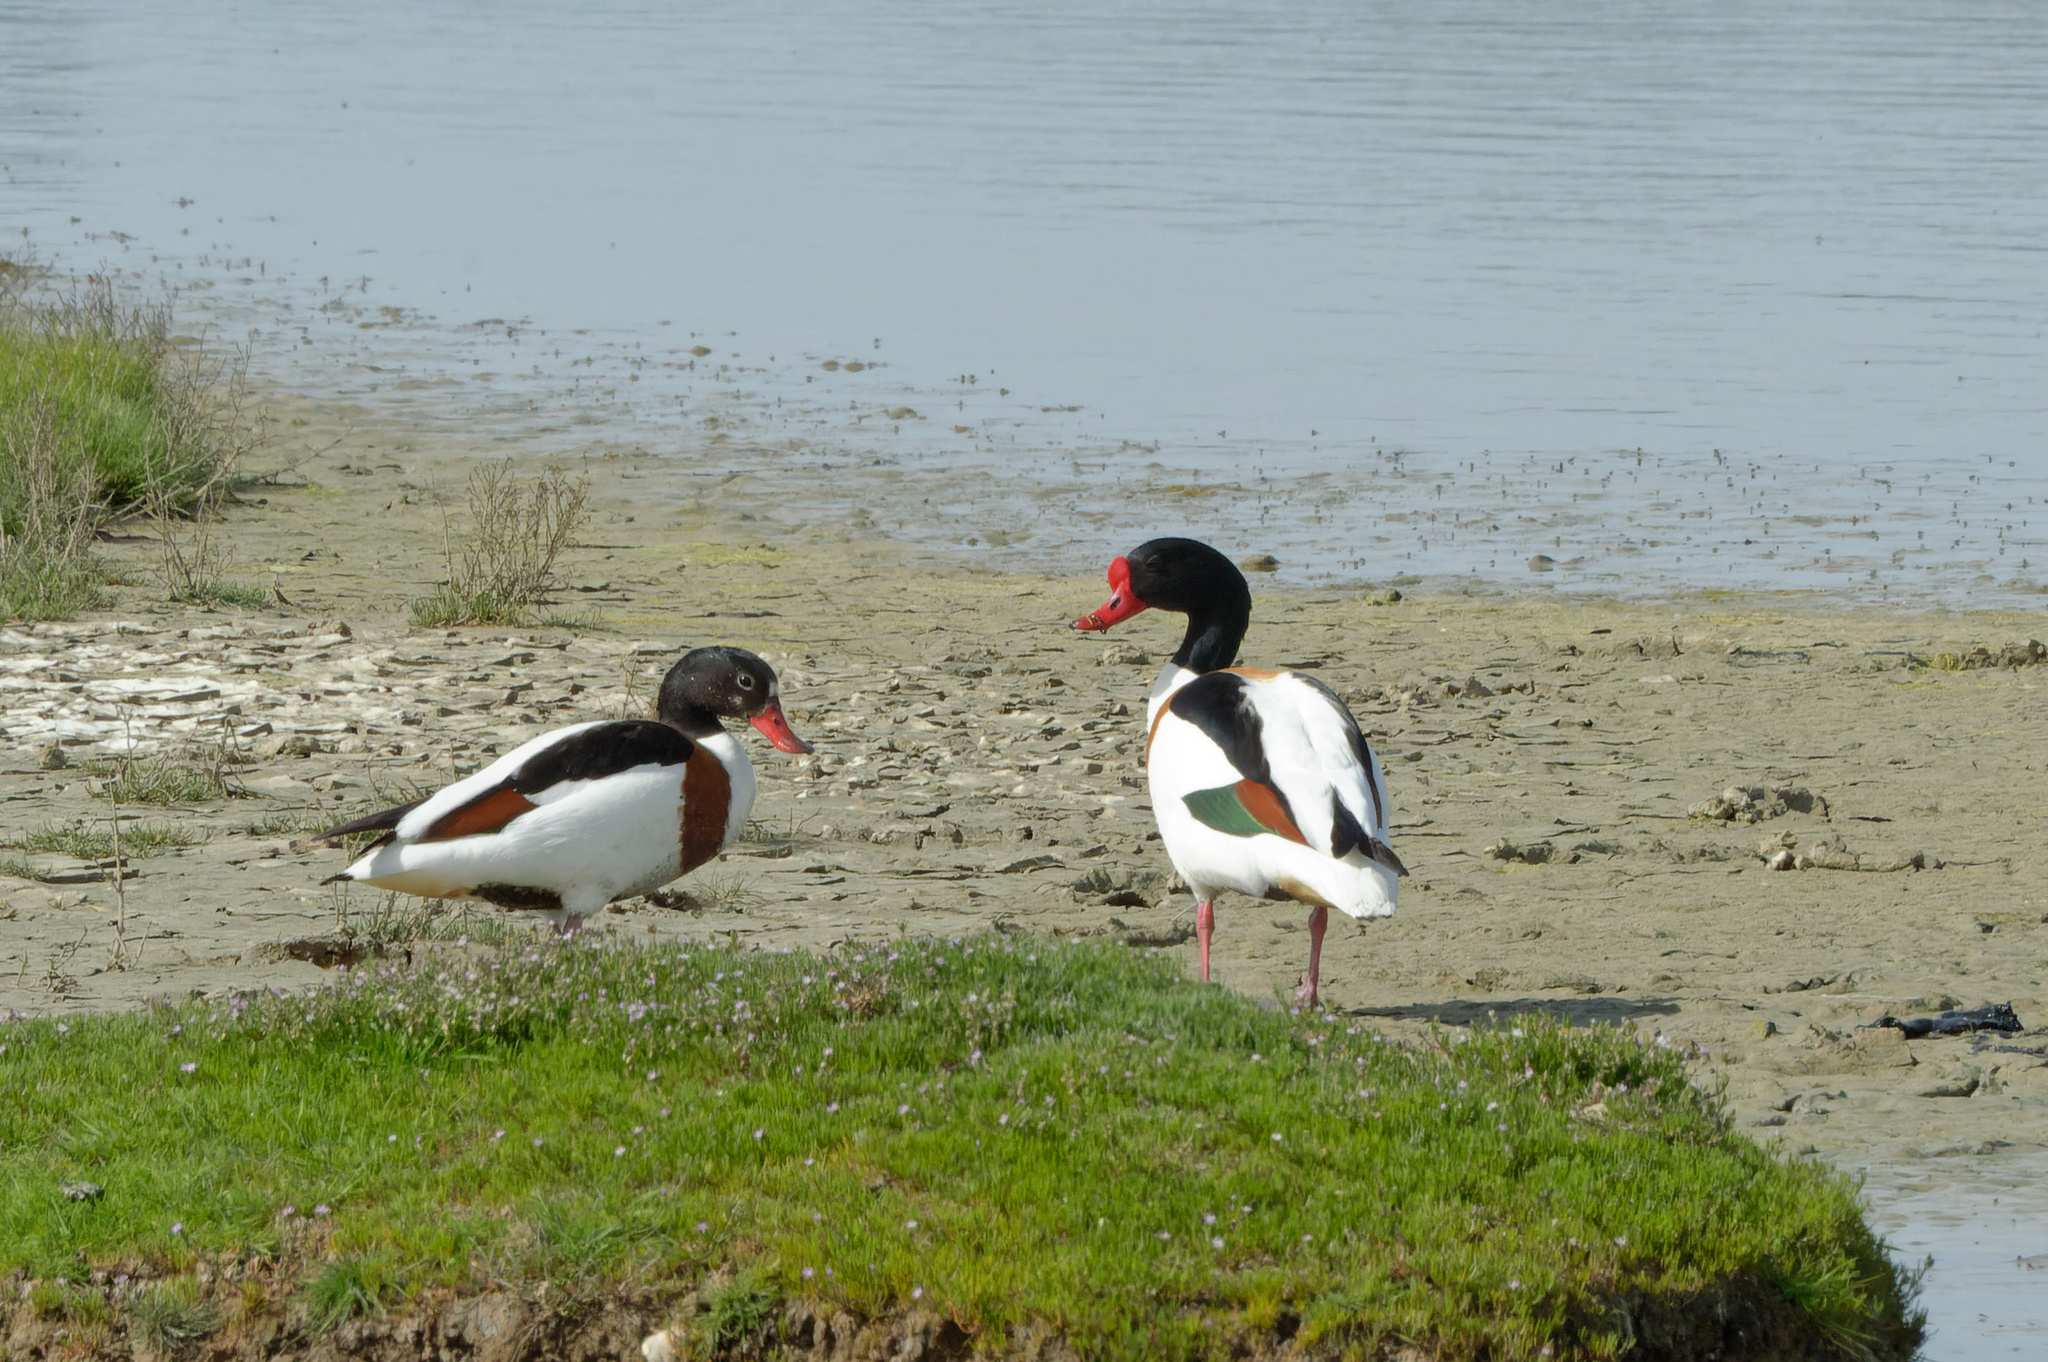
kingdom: Animalia
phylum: Chordata
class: Aves
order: Anseriformes
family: Anatidae
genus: Tadorna
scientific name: Tadorna tadorna
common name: Common shelduck
